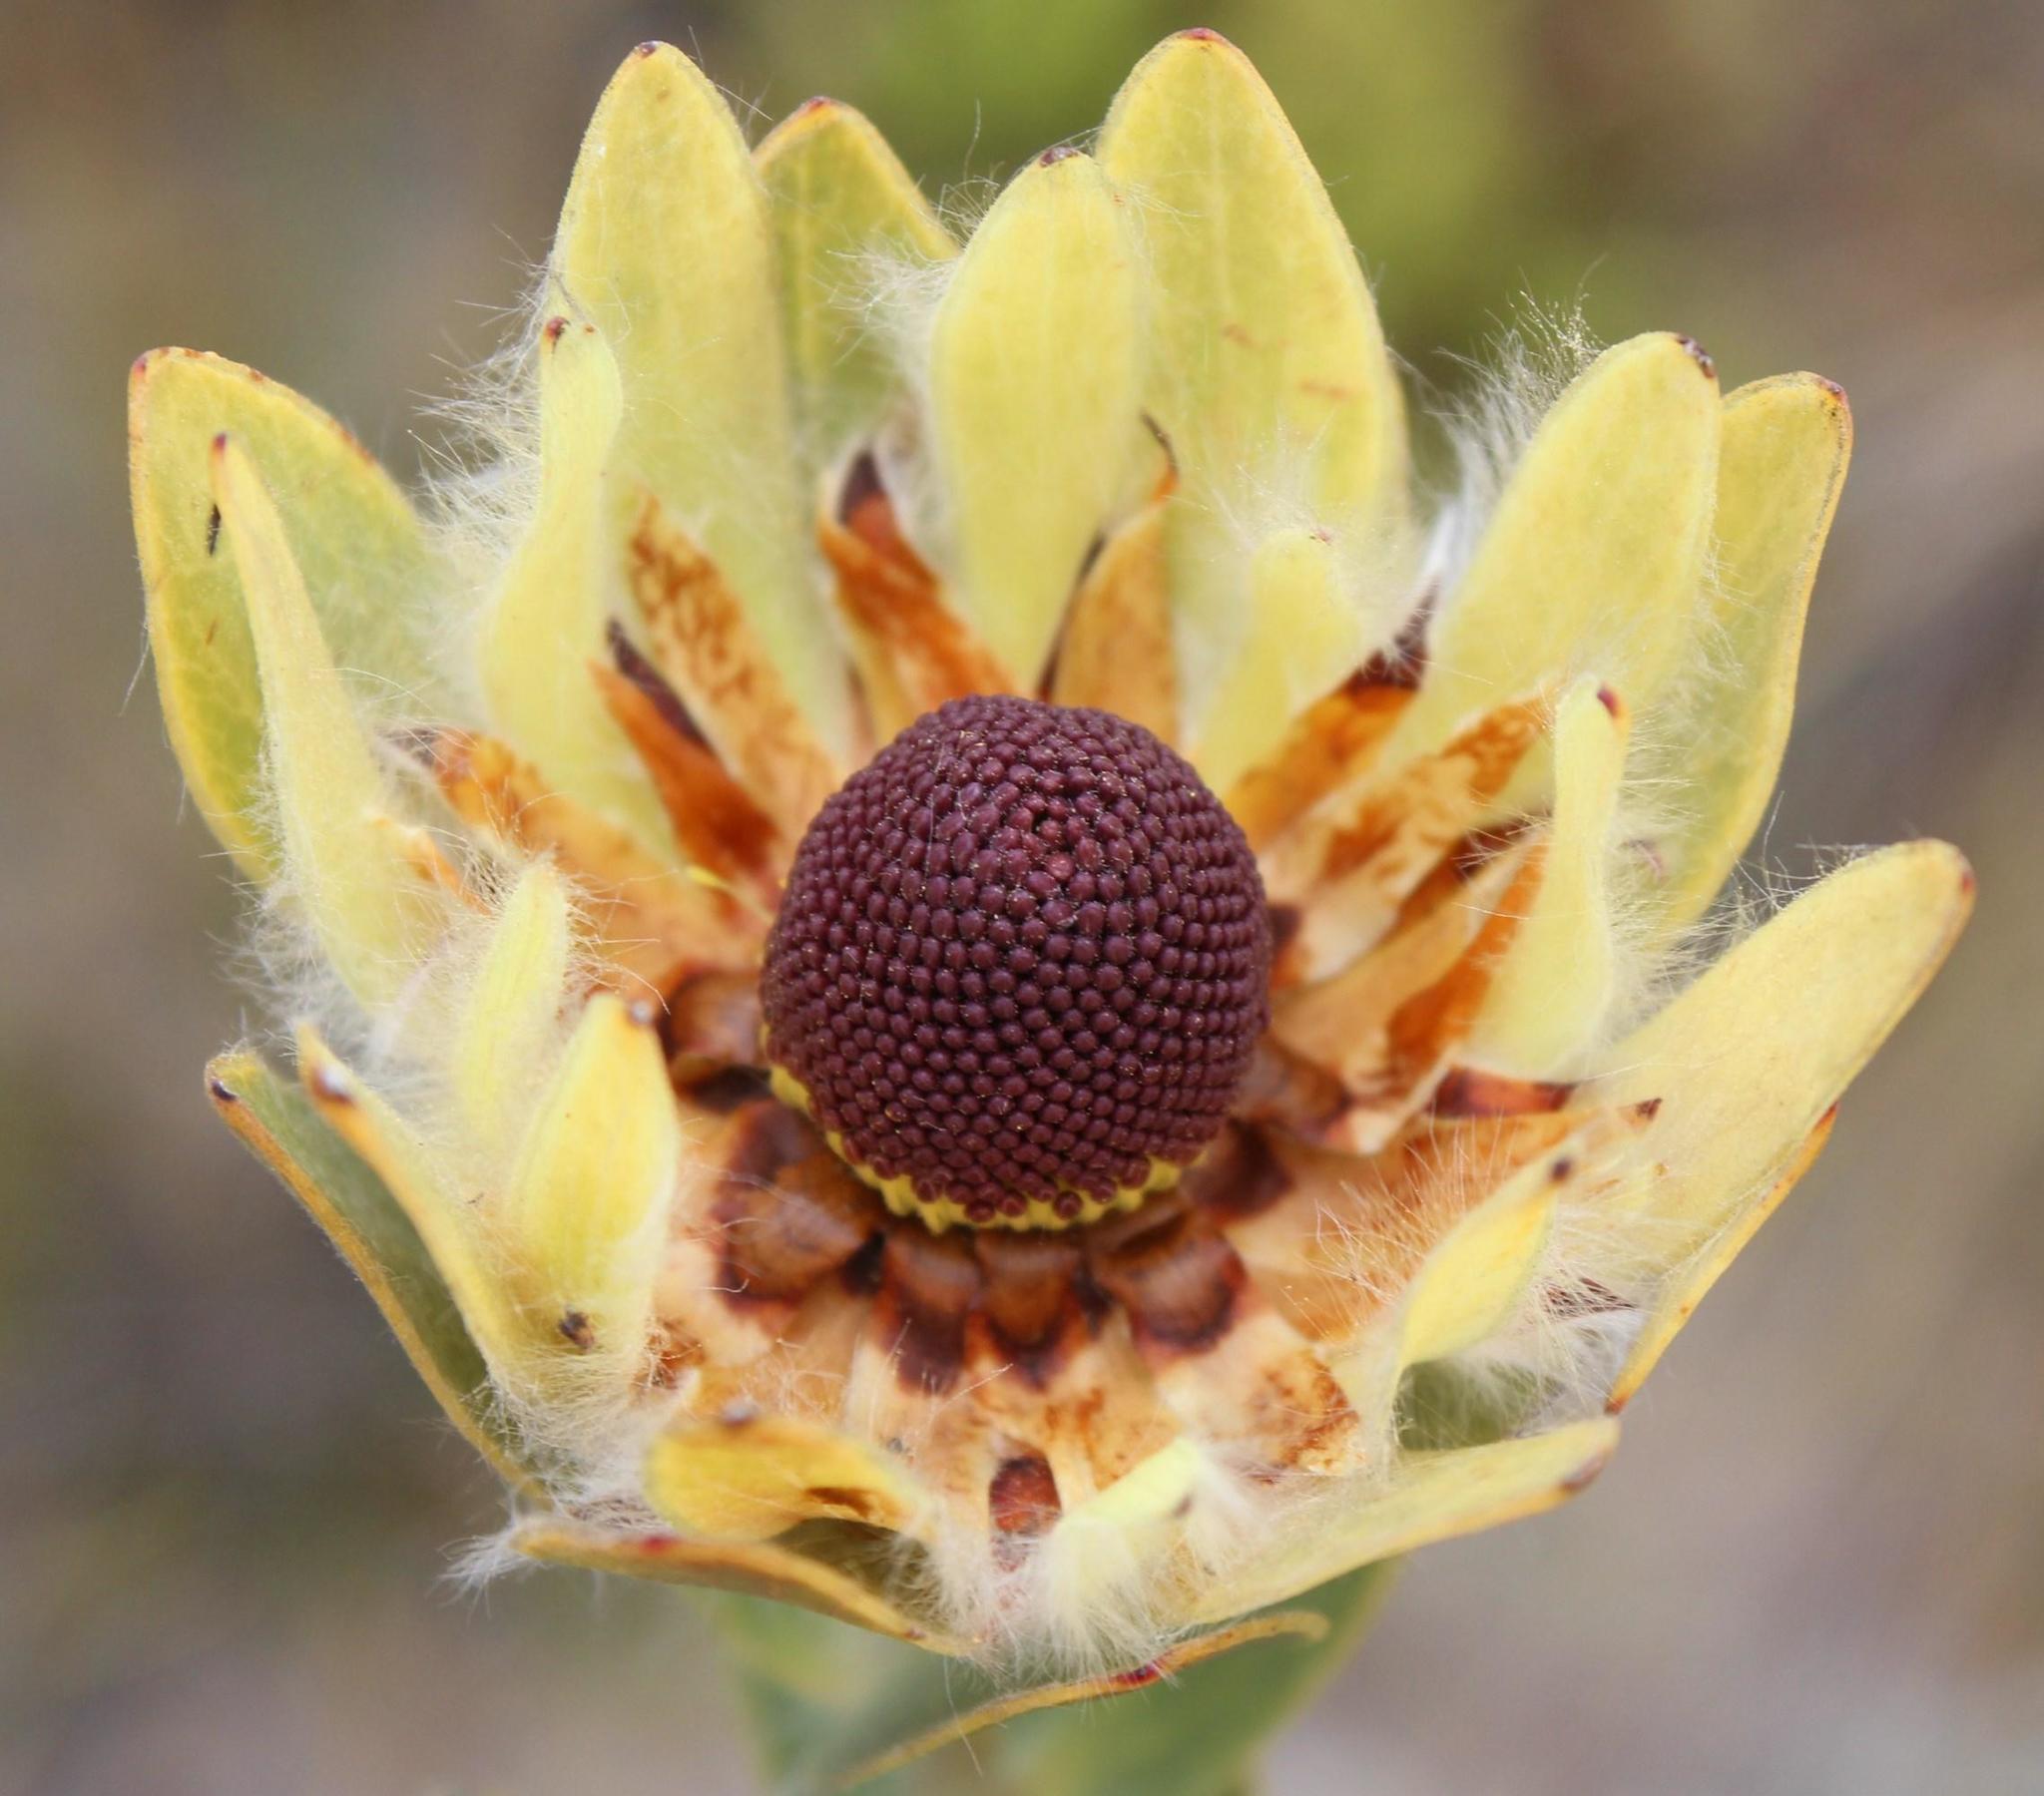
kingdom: Plantae
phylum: Tracheophyta
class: Magnoliopsida
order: Proteales
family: Proteaceae
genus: Leucadendron
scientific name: Leucadendron nervosum
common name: Silky-ruff conebush
